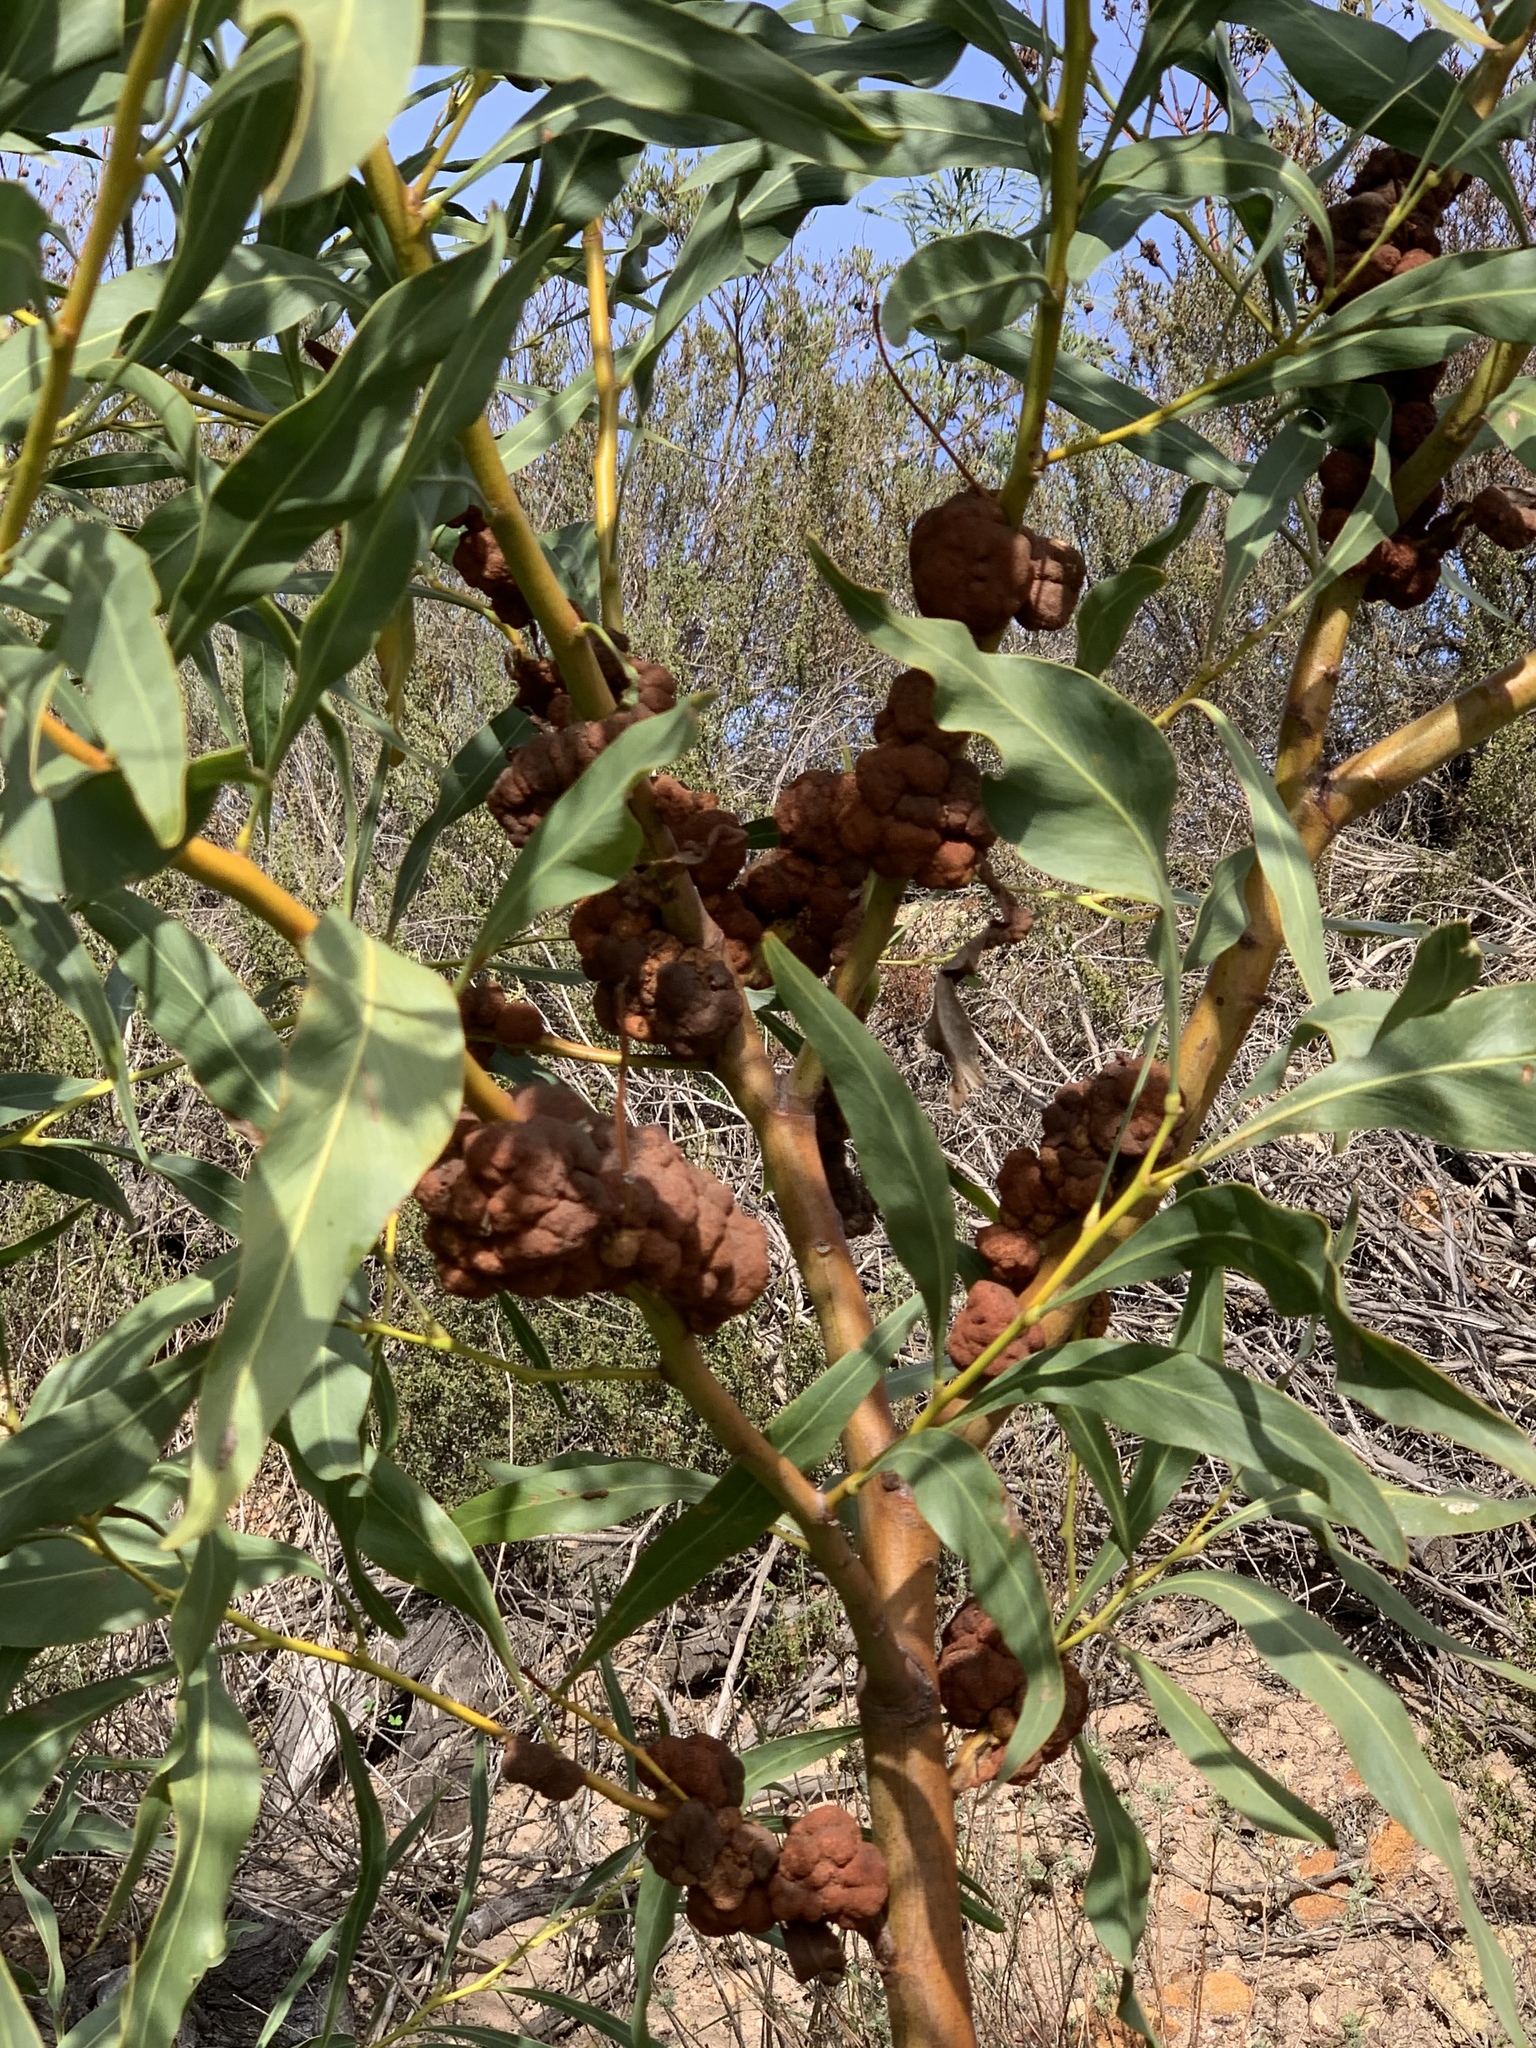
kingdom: Fungi
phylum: Basidiomycota
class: Pucciniomycetes
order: Pucciniales
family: Uromycladiaceae
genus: Uromycladium
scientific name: Uromycladium morrisii
